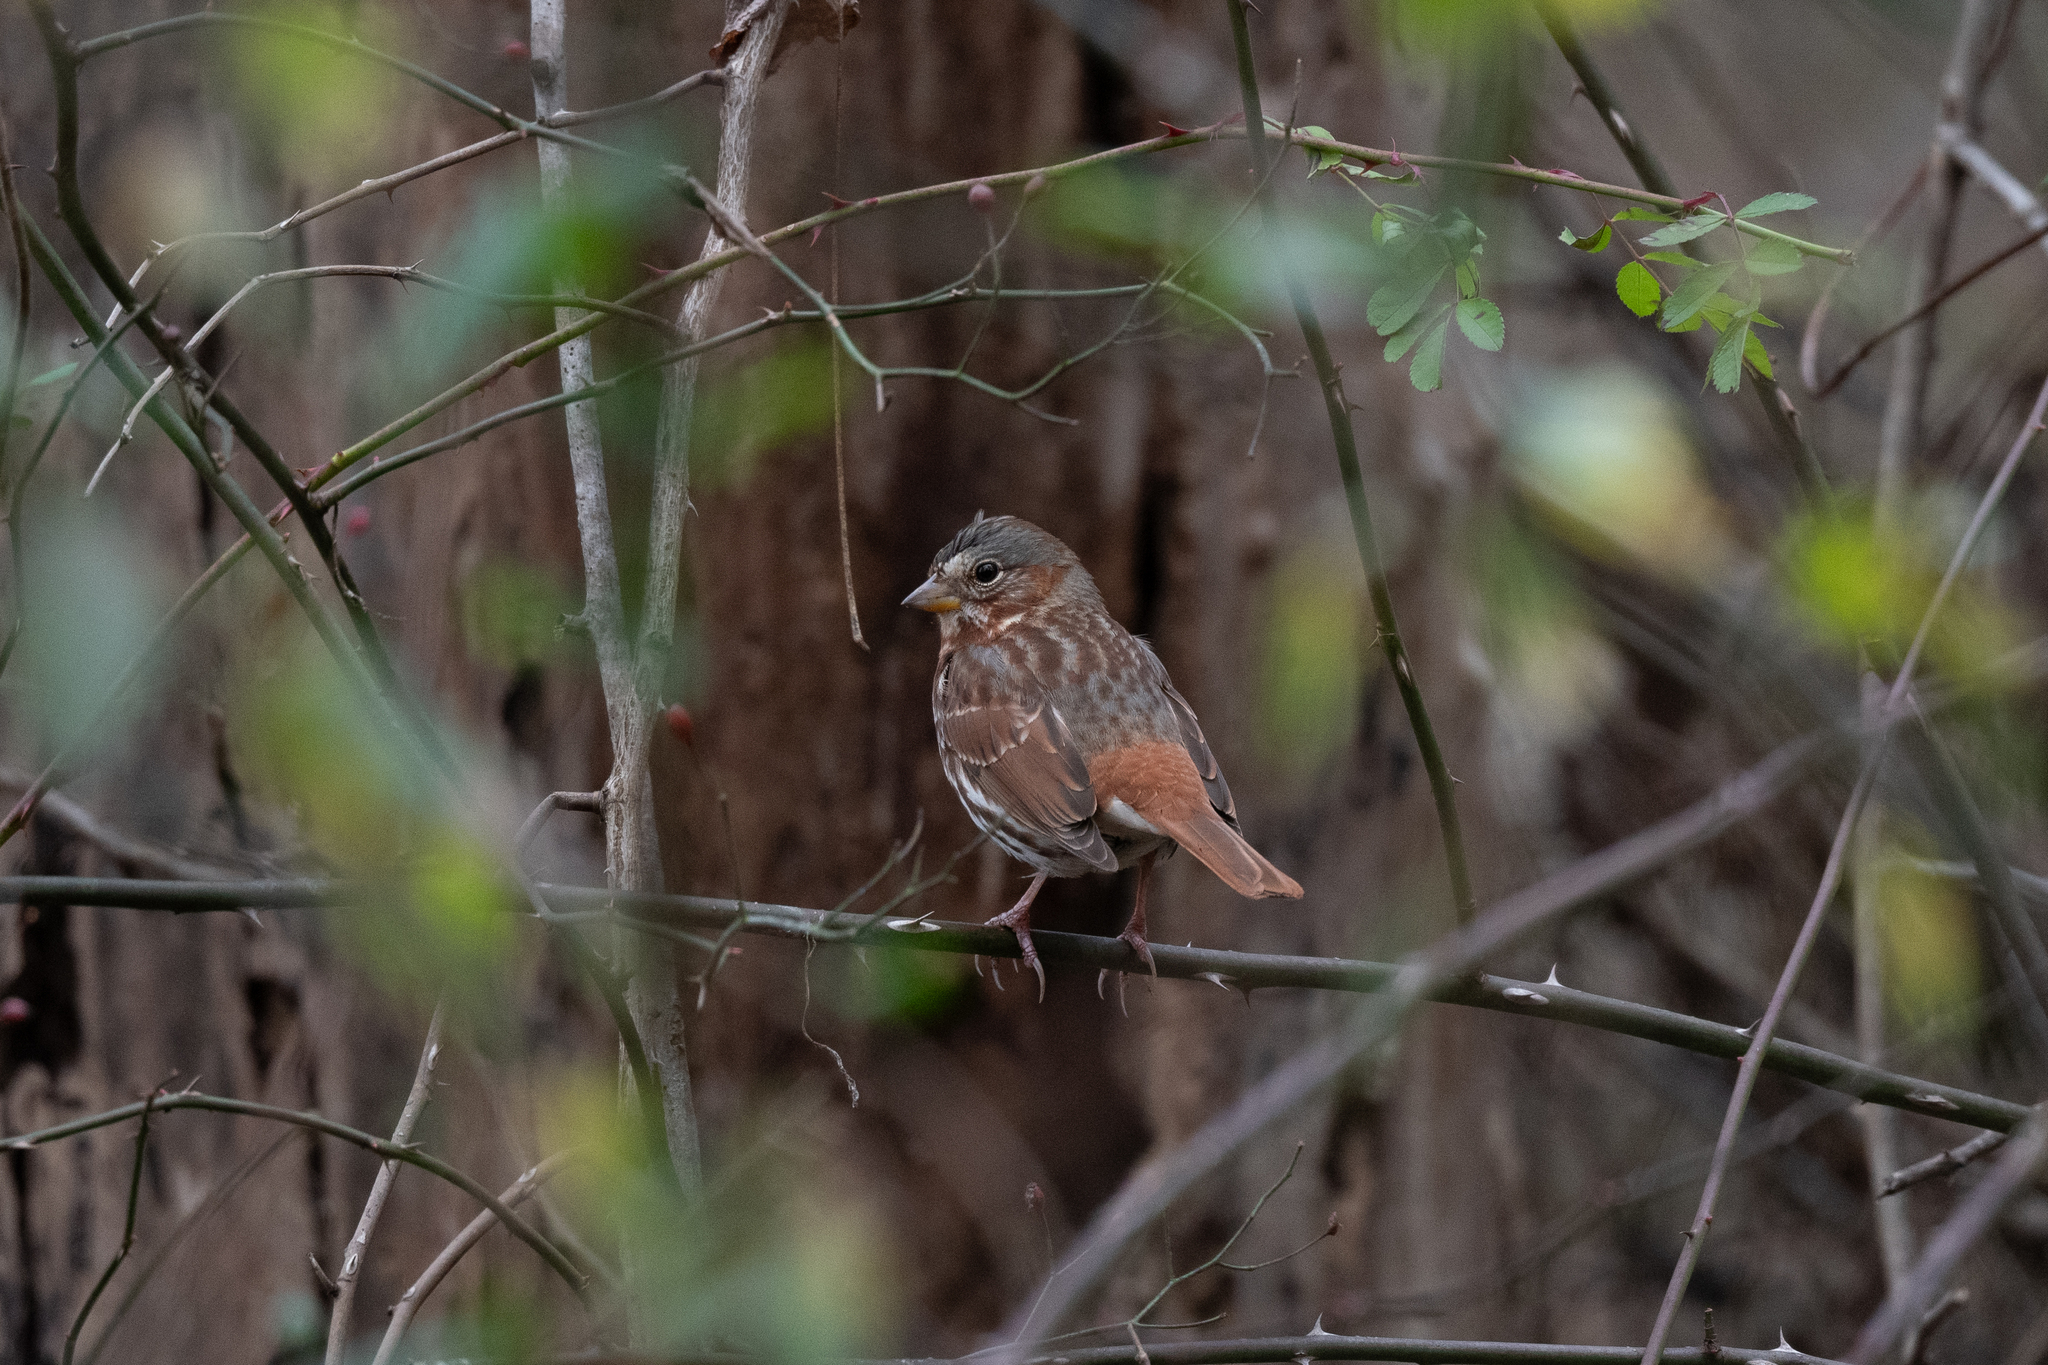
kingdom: Animalia
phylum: Chordata
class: Aves
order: Passeriformes
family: Passerellidae
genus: Passerella
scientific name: Passerella iliaca
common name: Fox sparrow
